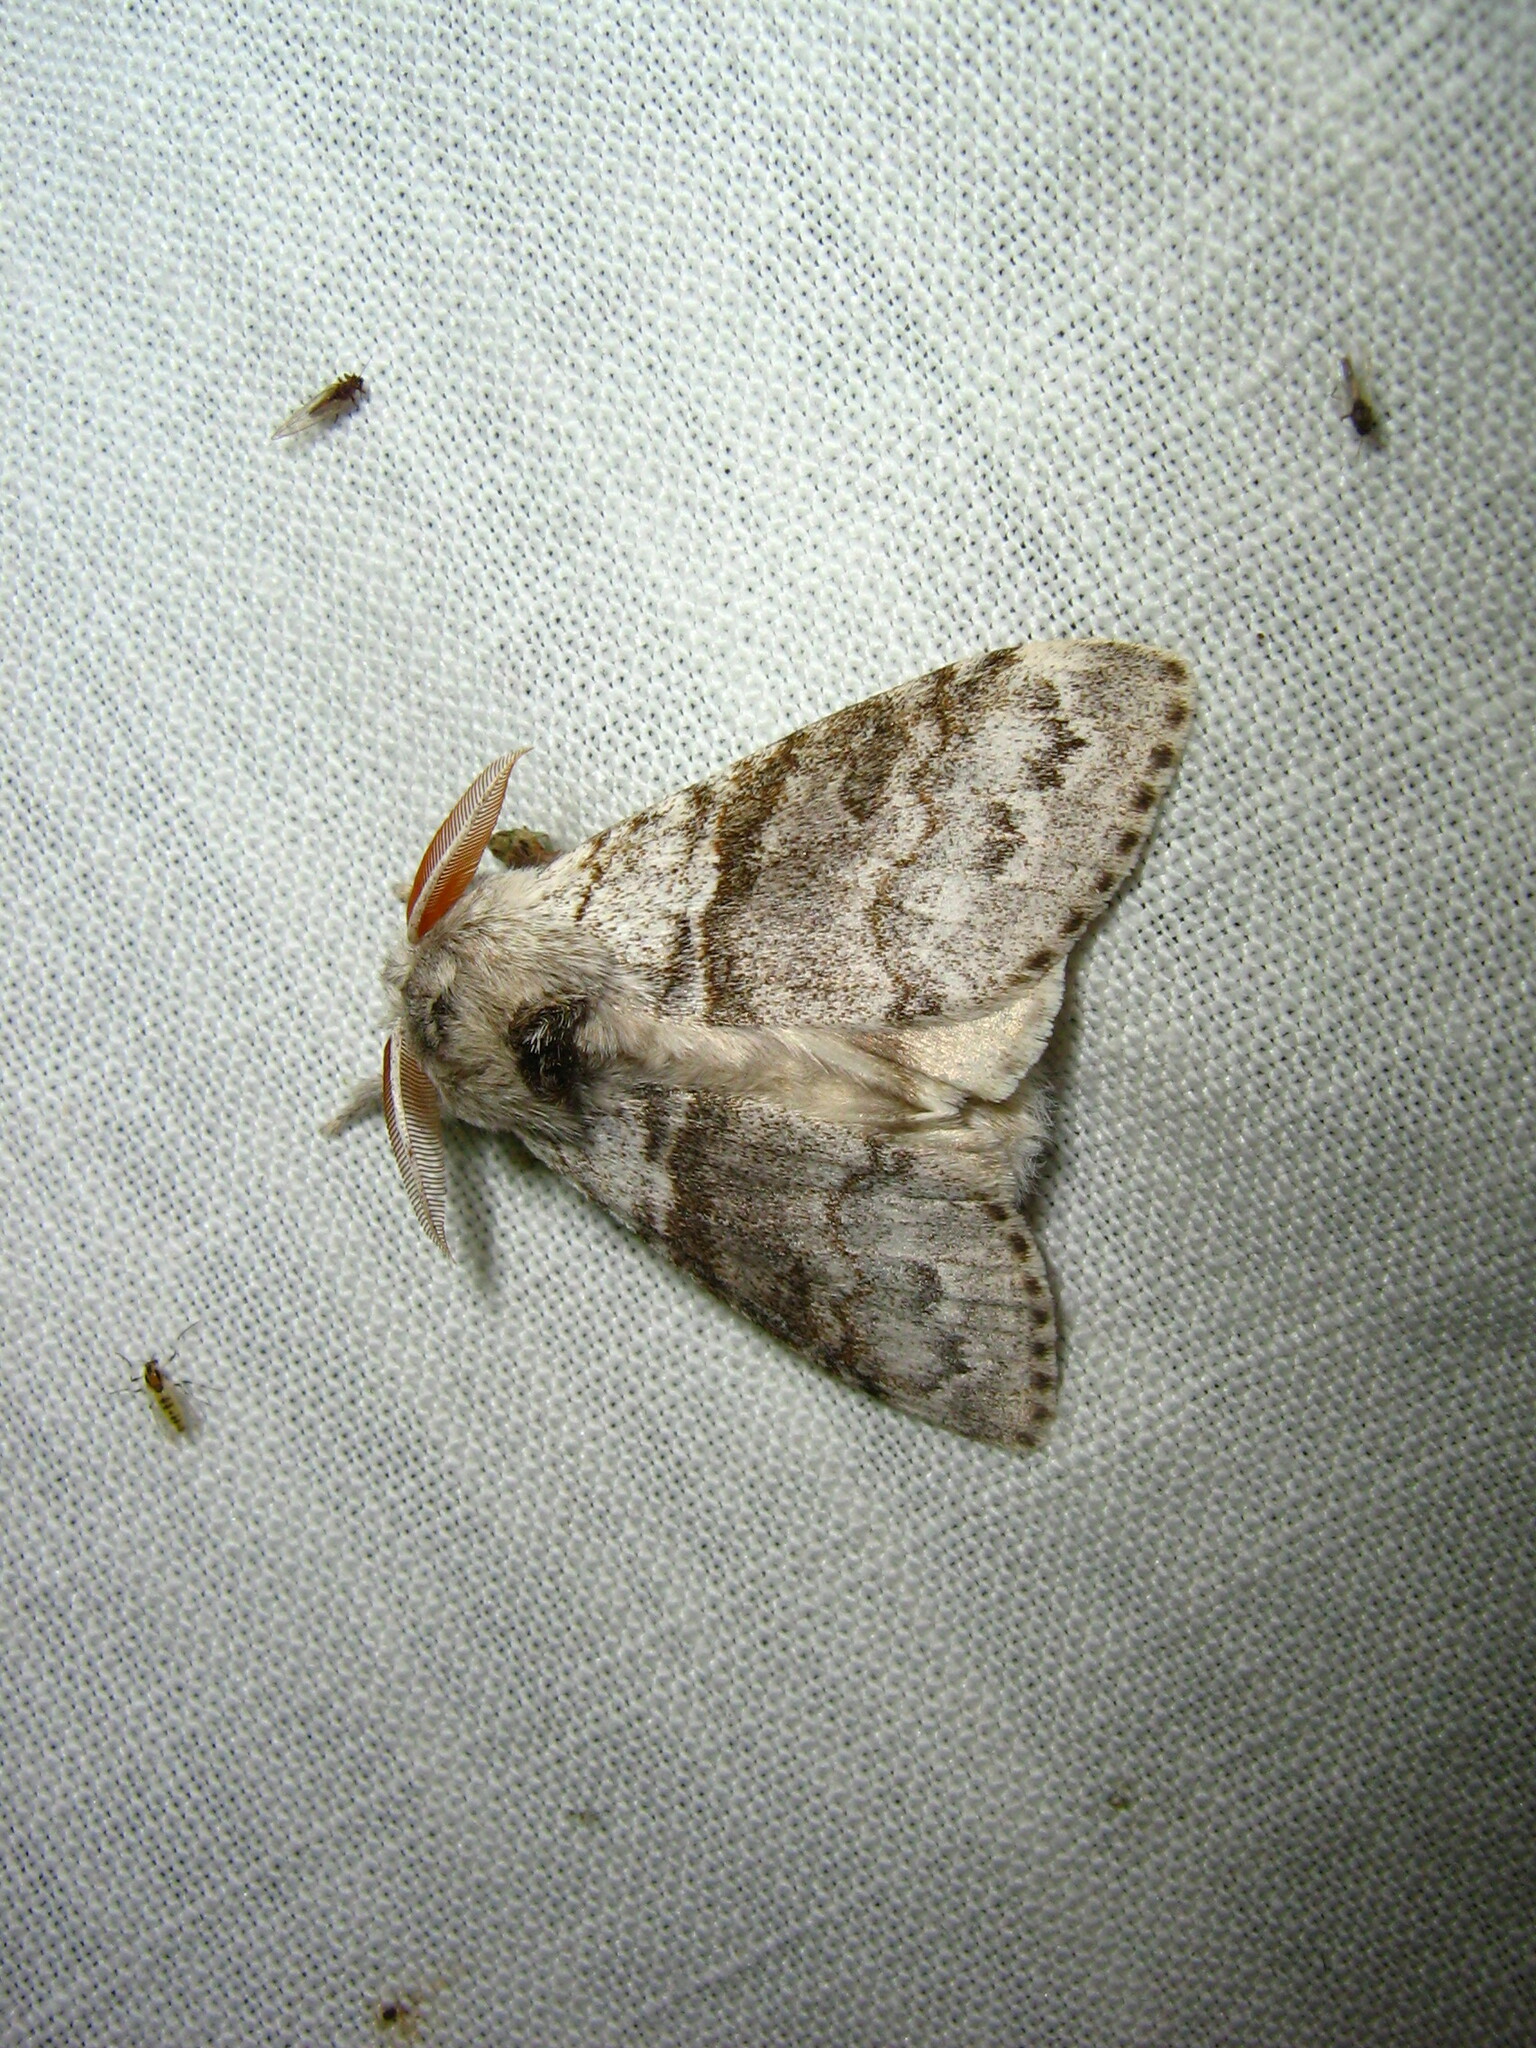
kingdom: Animalia
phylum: Arthropoda
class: Insecta
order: Lepidoptera
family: Erebidae
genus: Calliteara
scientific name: Calliteara pudibunda
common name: Pale tussock
